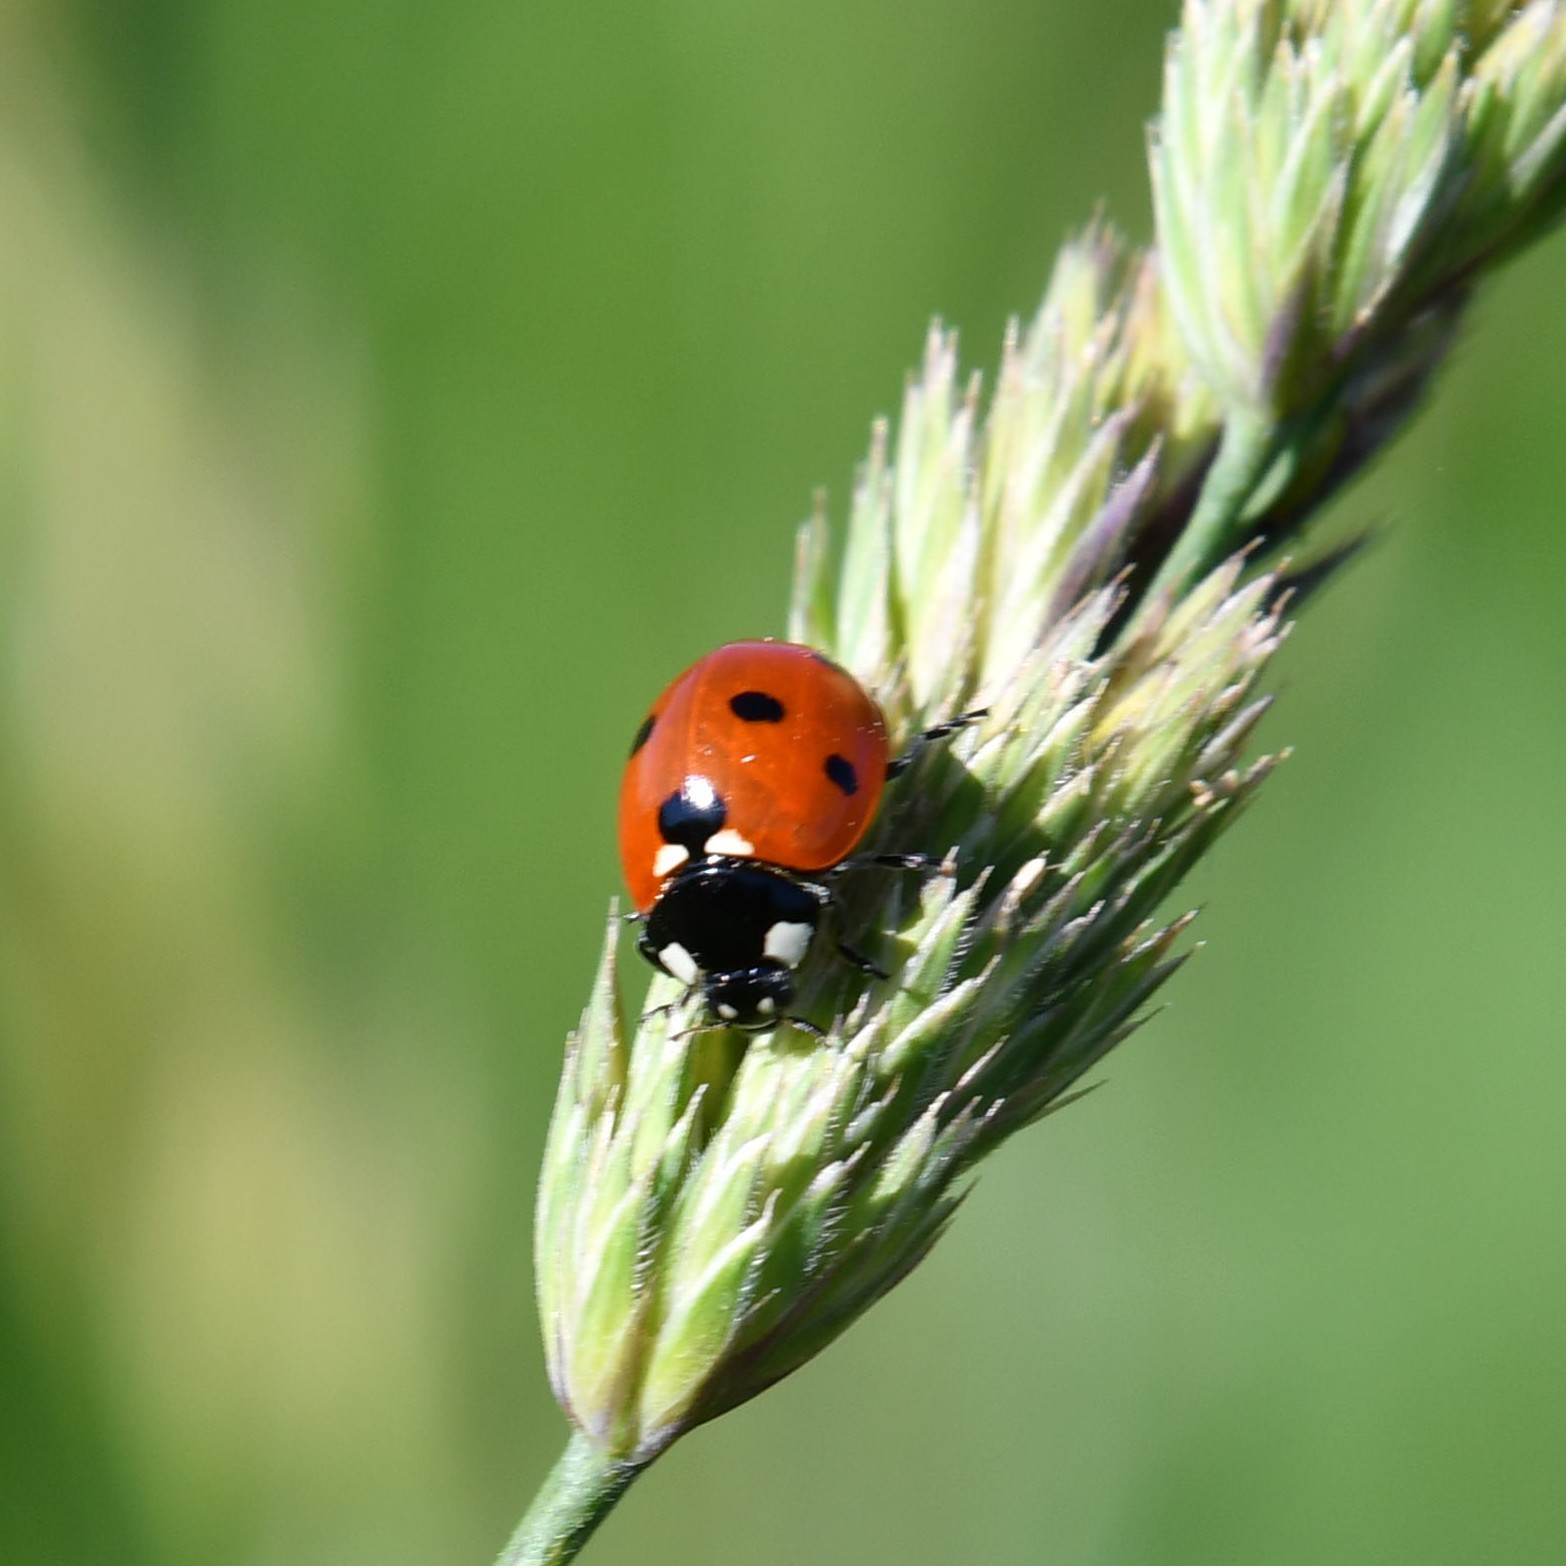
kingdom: Animalia
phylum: Arthropoda
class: Insecta
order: Coleoptera
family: Coccinellidae
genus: Coccinella
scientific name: Coccinella septempunctata
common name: Sevenspotted lady beetle
